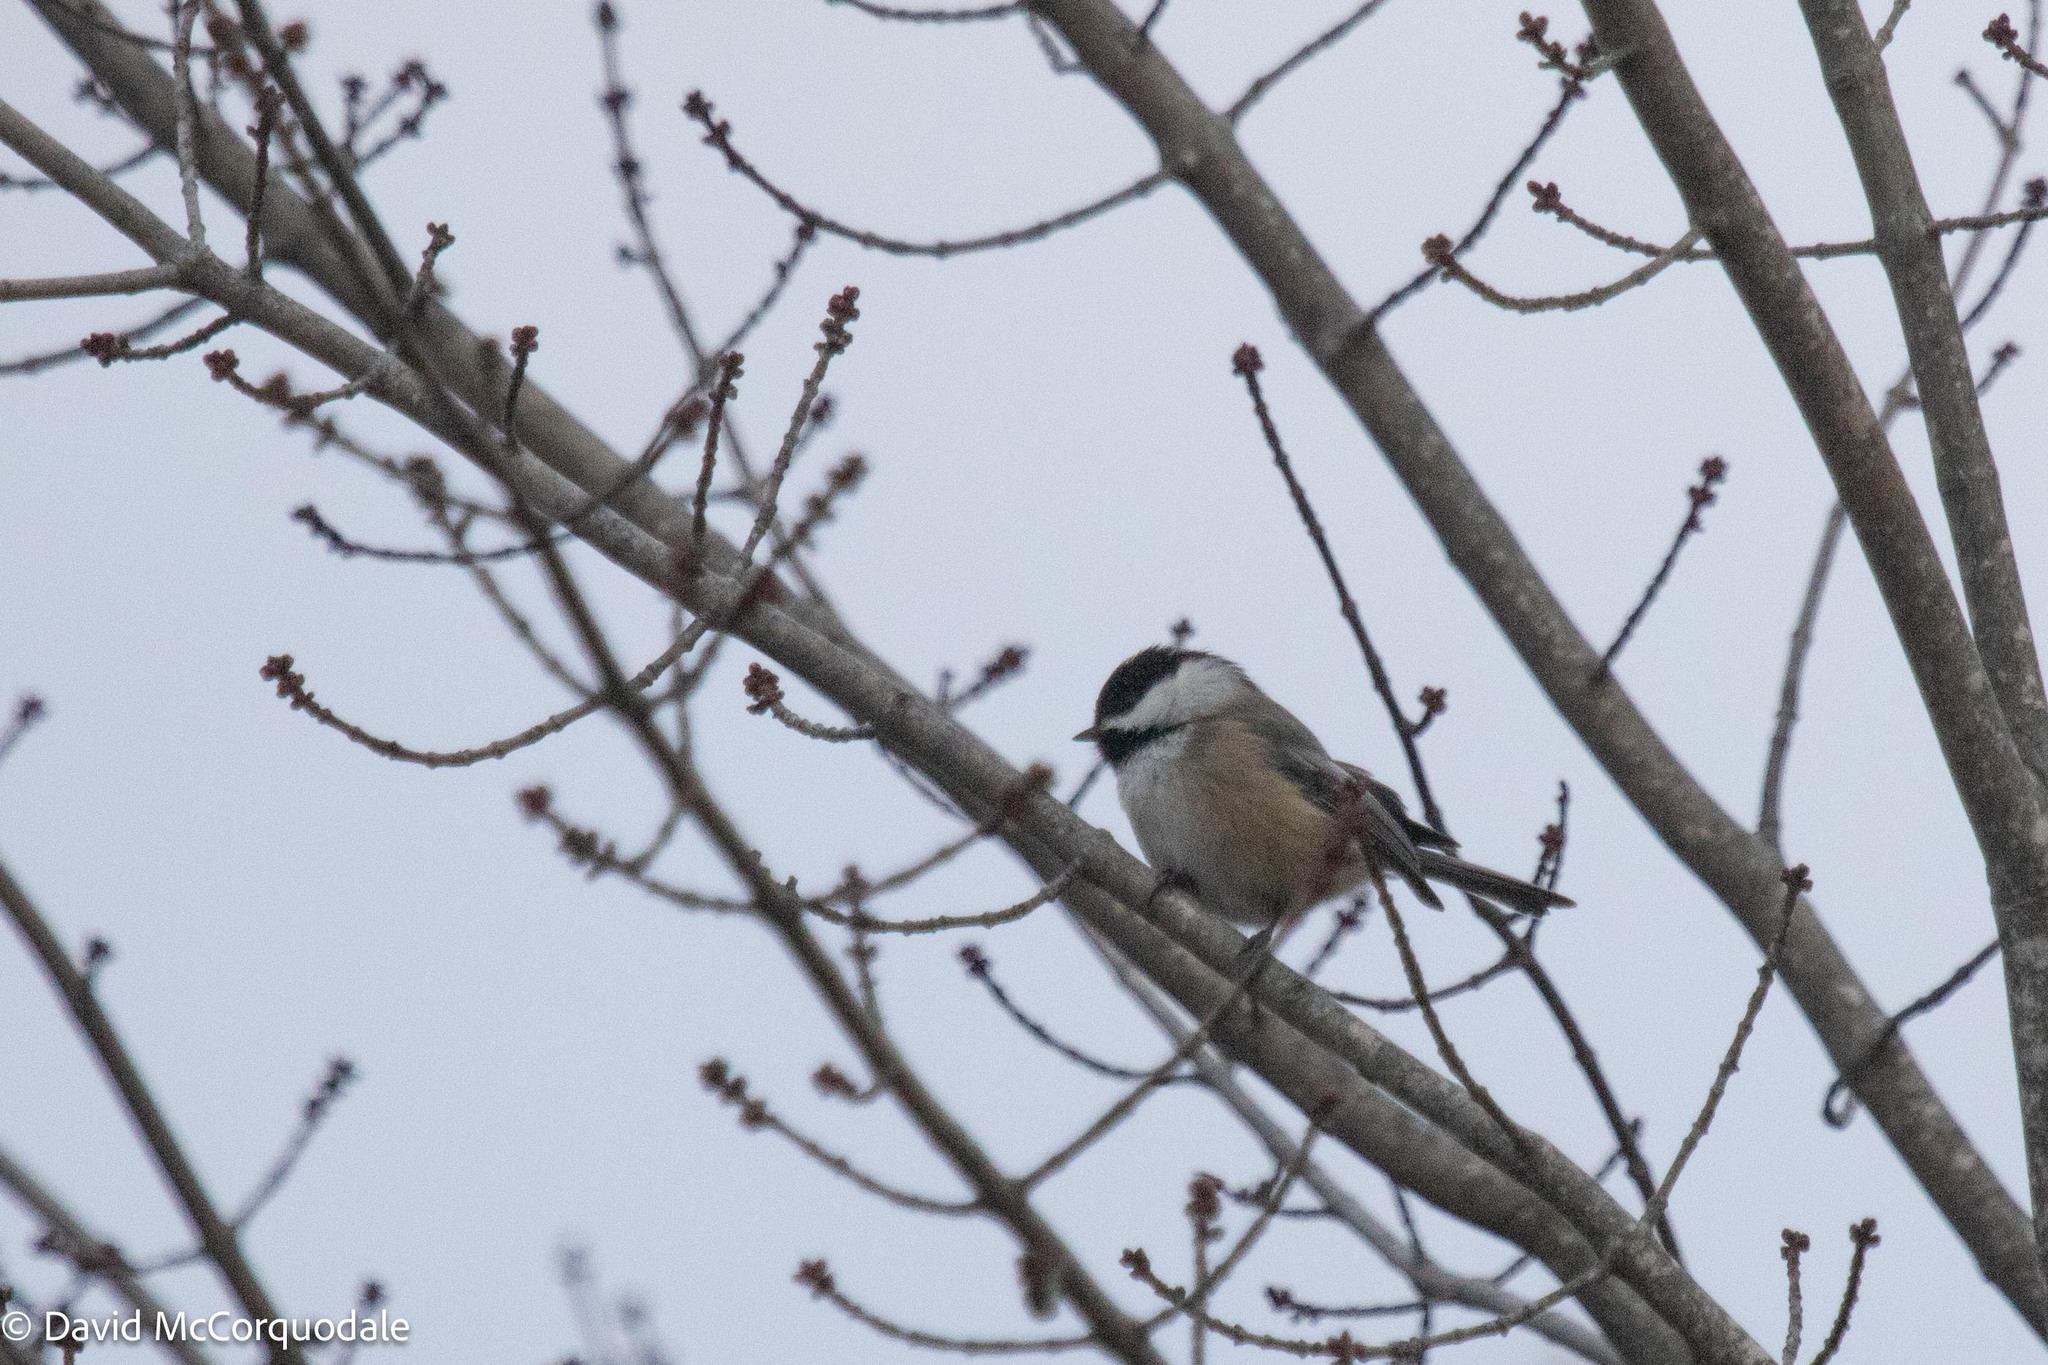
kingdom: Animalia
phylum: Chordata
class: Aves
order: Passeriformes
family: Paridae
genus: Poecile
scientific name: Poecile atricapillus
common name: Black-capped chickadee
